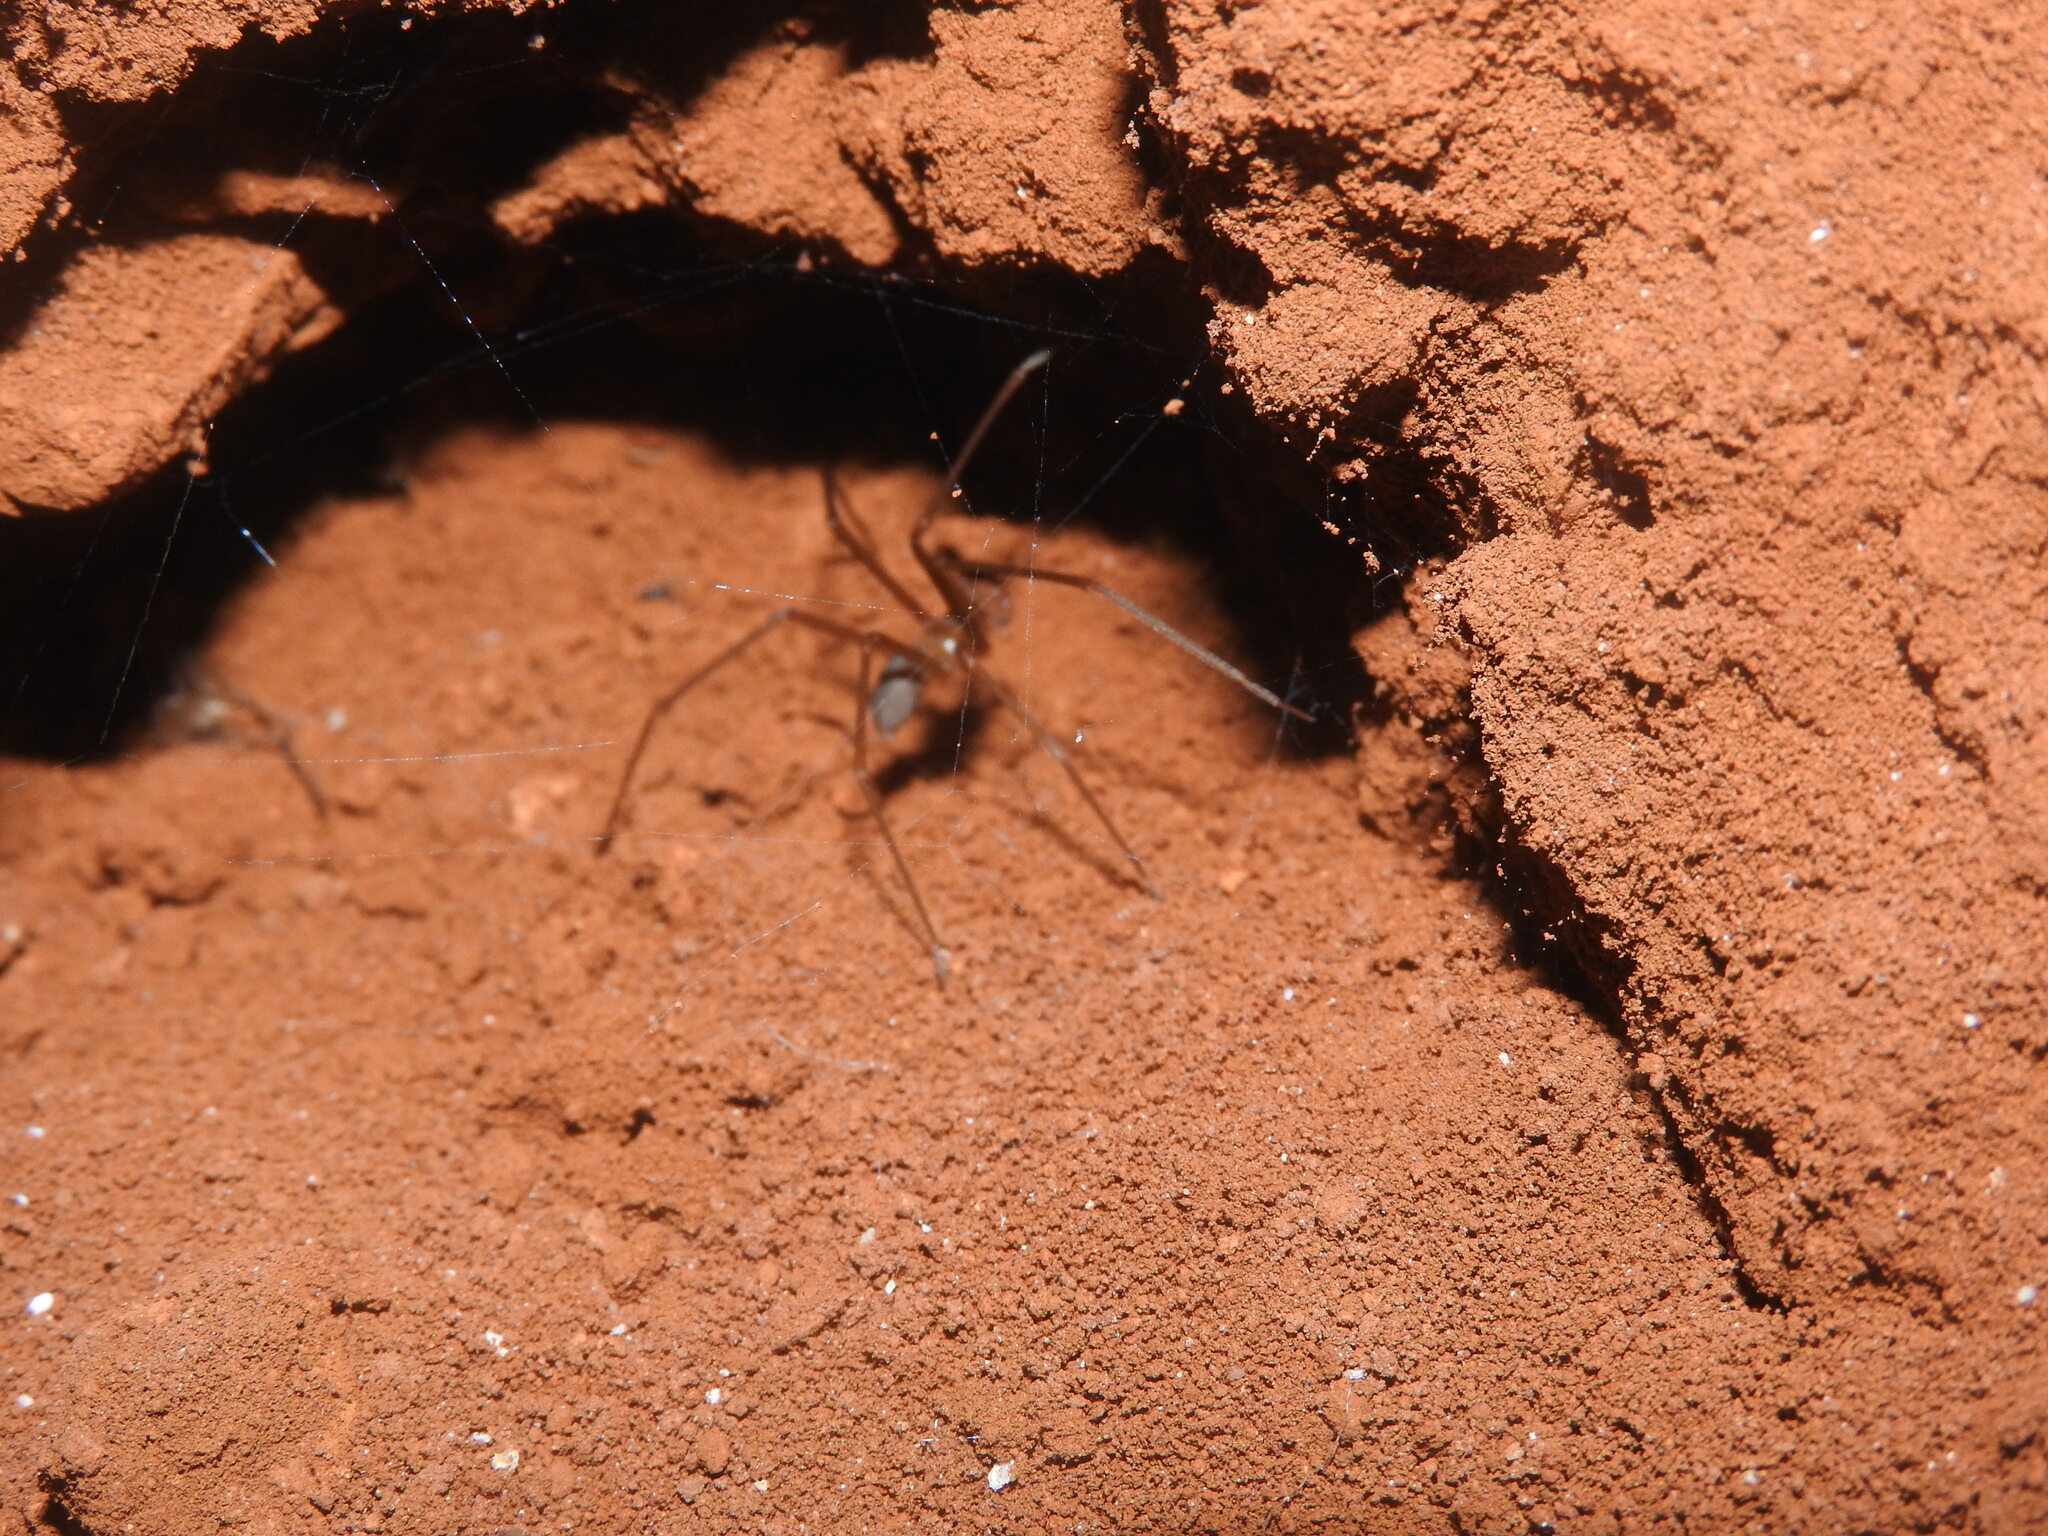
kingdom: Animalia
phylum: Arthropoda
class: Arachnida
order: Araneae
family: Sicariidae
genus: Loxosceles
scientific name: Loxosceles yucatana
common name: Violin spiders
